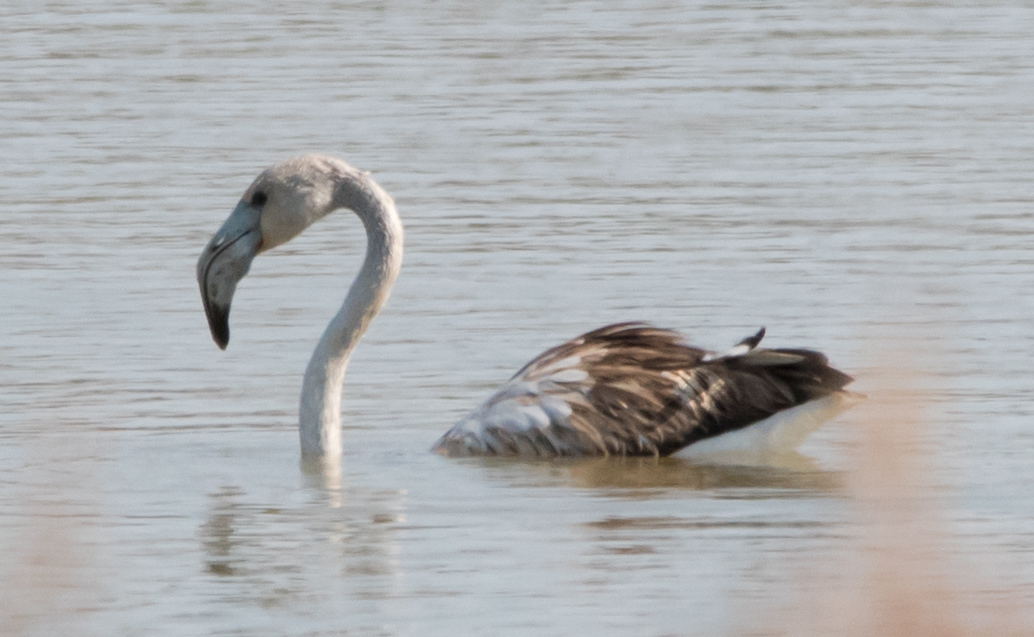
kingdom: Animalia
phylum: Chordata
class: Aves
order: Phoenicopteriformes
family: Phoenicopteridae
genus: Phoenicopterus
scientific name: Phoenicopterus roseus
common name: Greater flamingo
